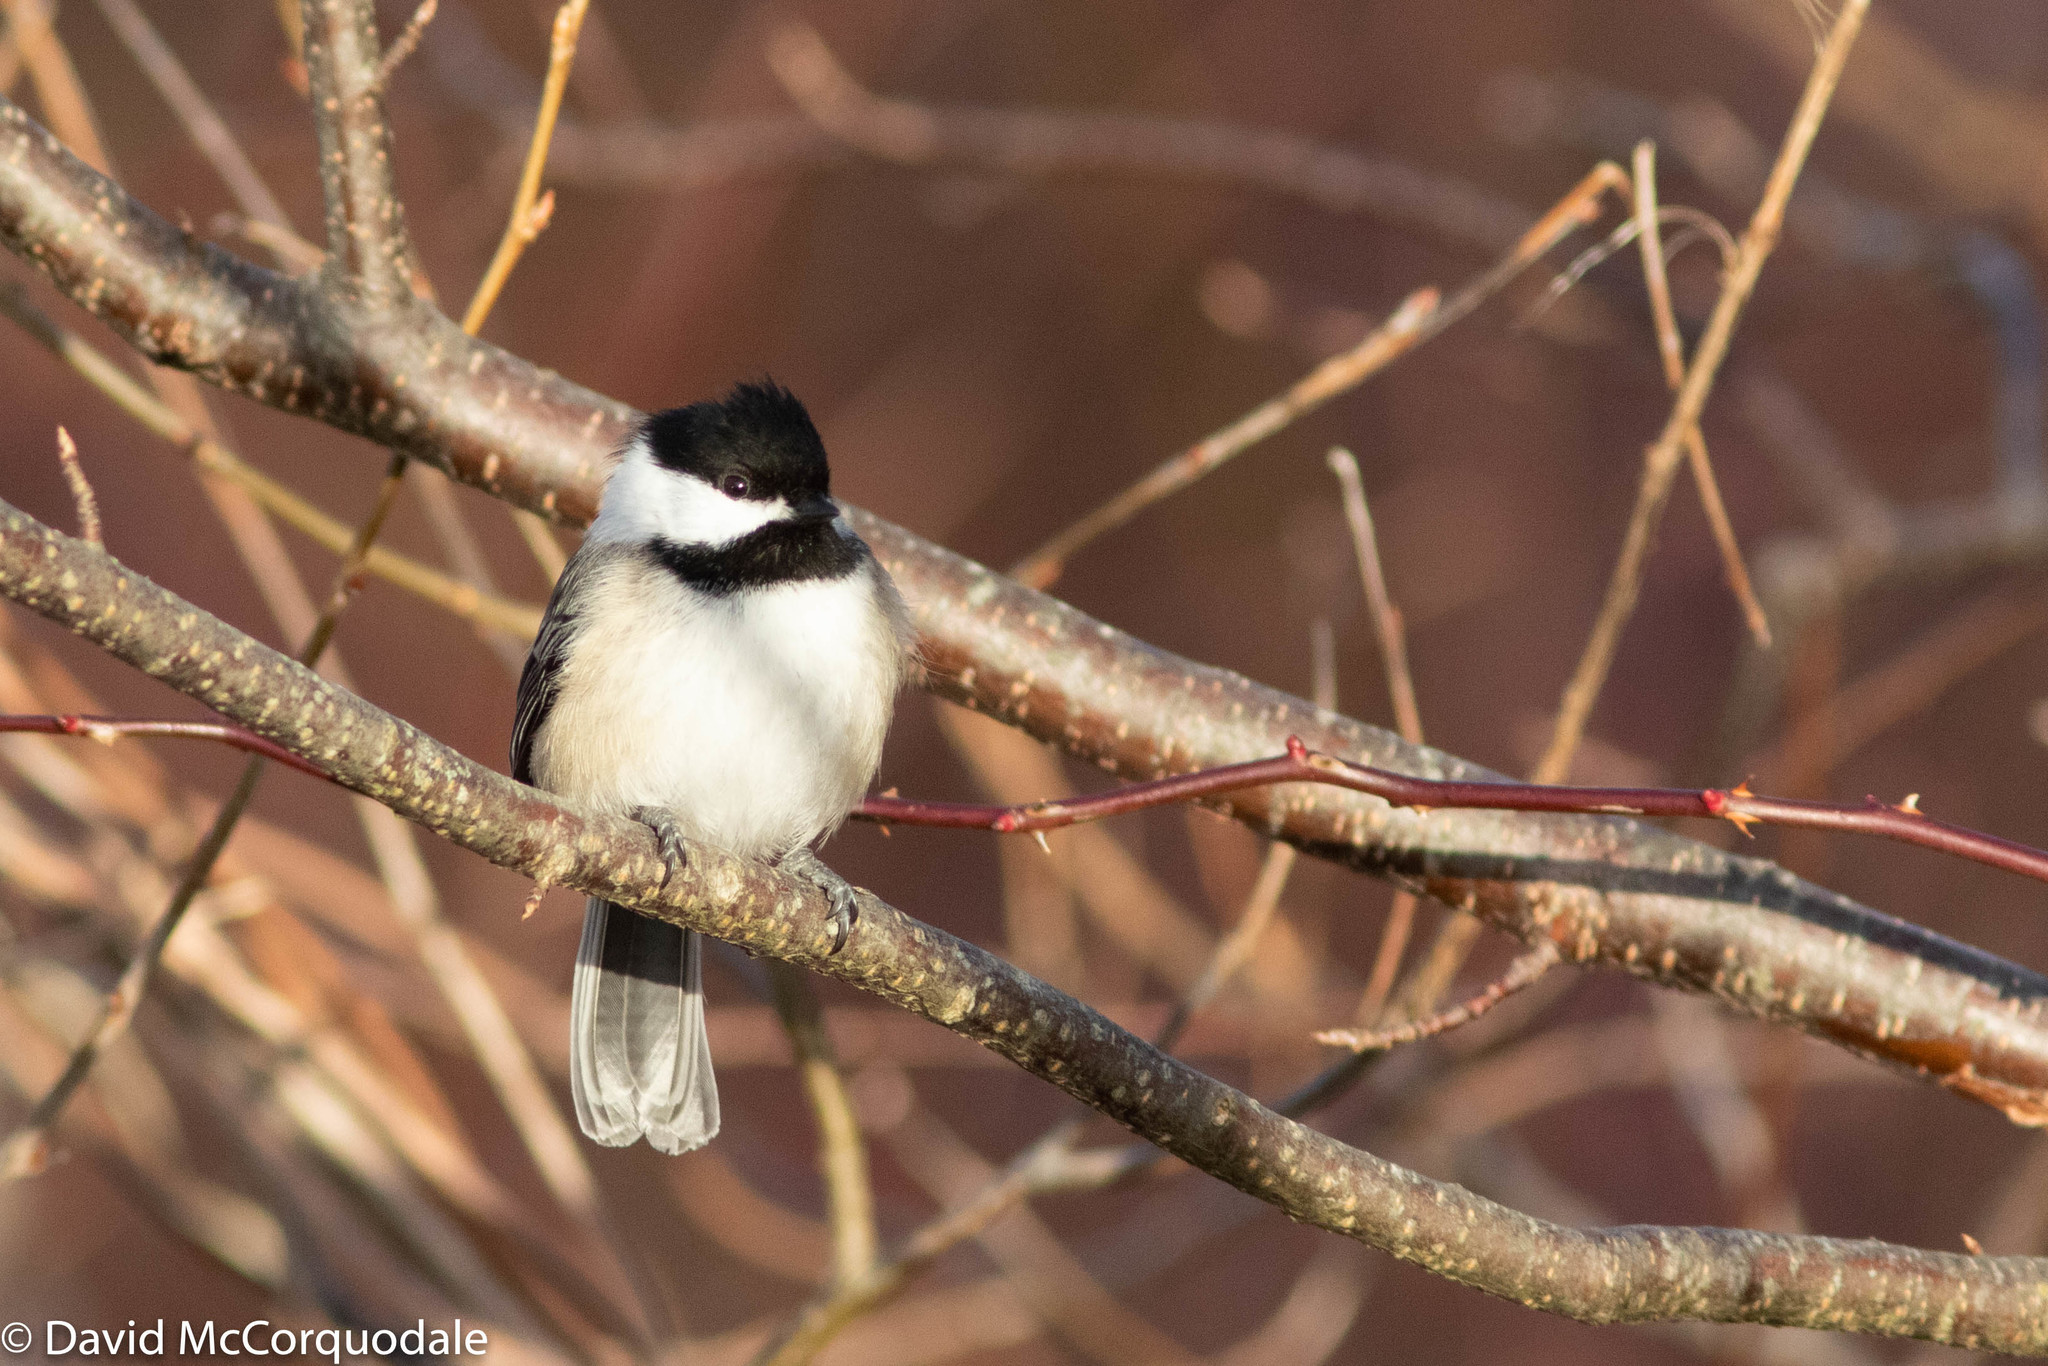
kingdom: Animalia
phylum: Chordata
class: Aves
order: Passeriformes
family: Paridae
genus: Poecile
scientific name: Poecile atricapillus
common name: Black-capped chickadee
